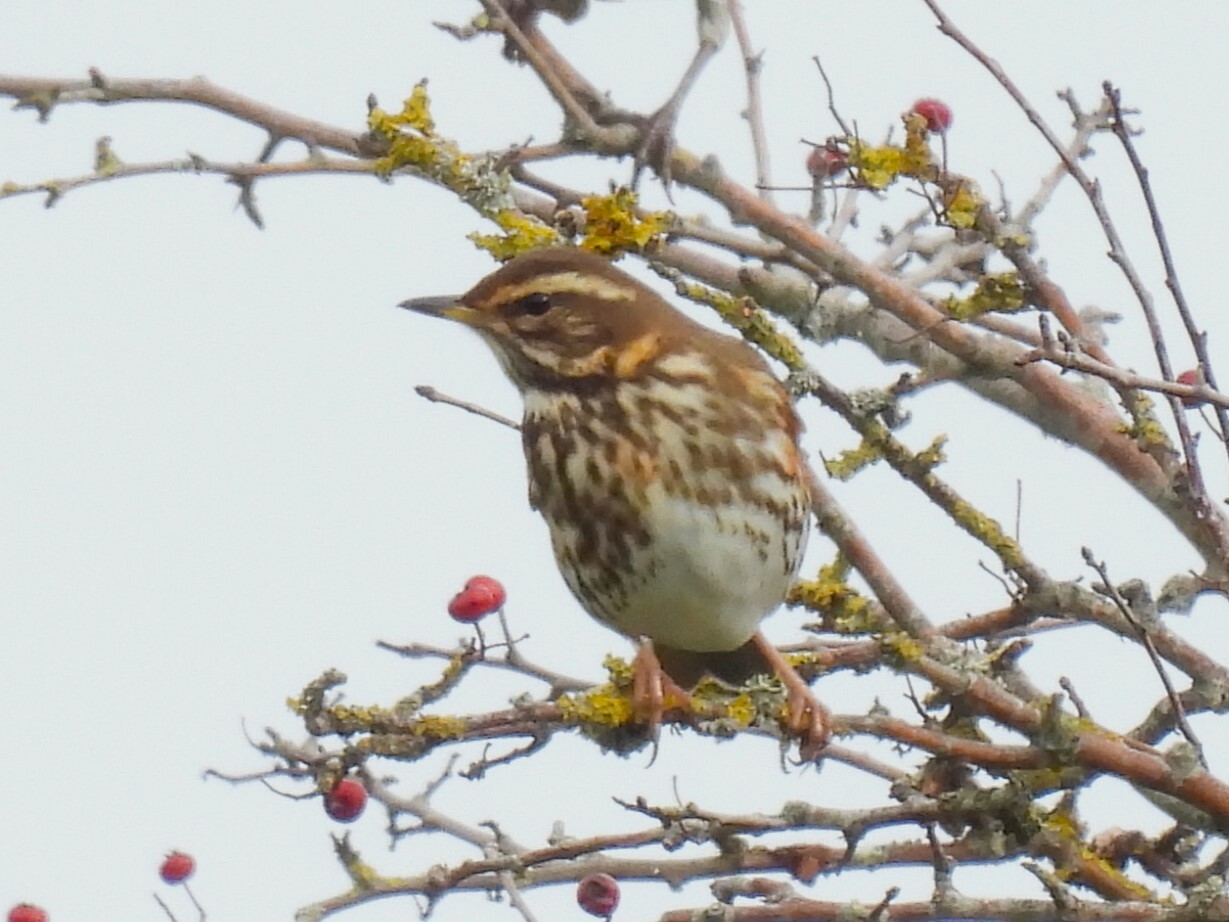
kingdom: Animalia
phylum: Chordata
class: Aves
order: Passeriformes
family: Turdidae
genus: Turdus
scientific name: Turdus iliacus
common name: Redwing
